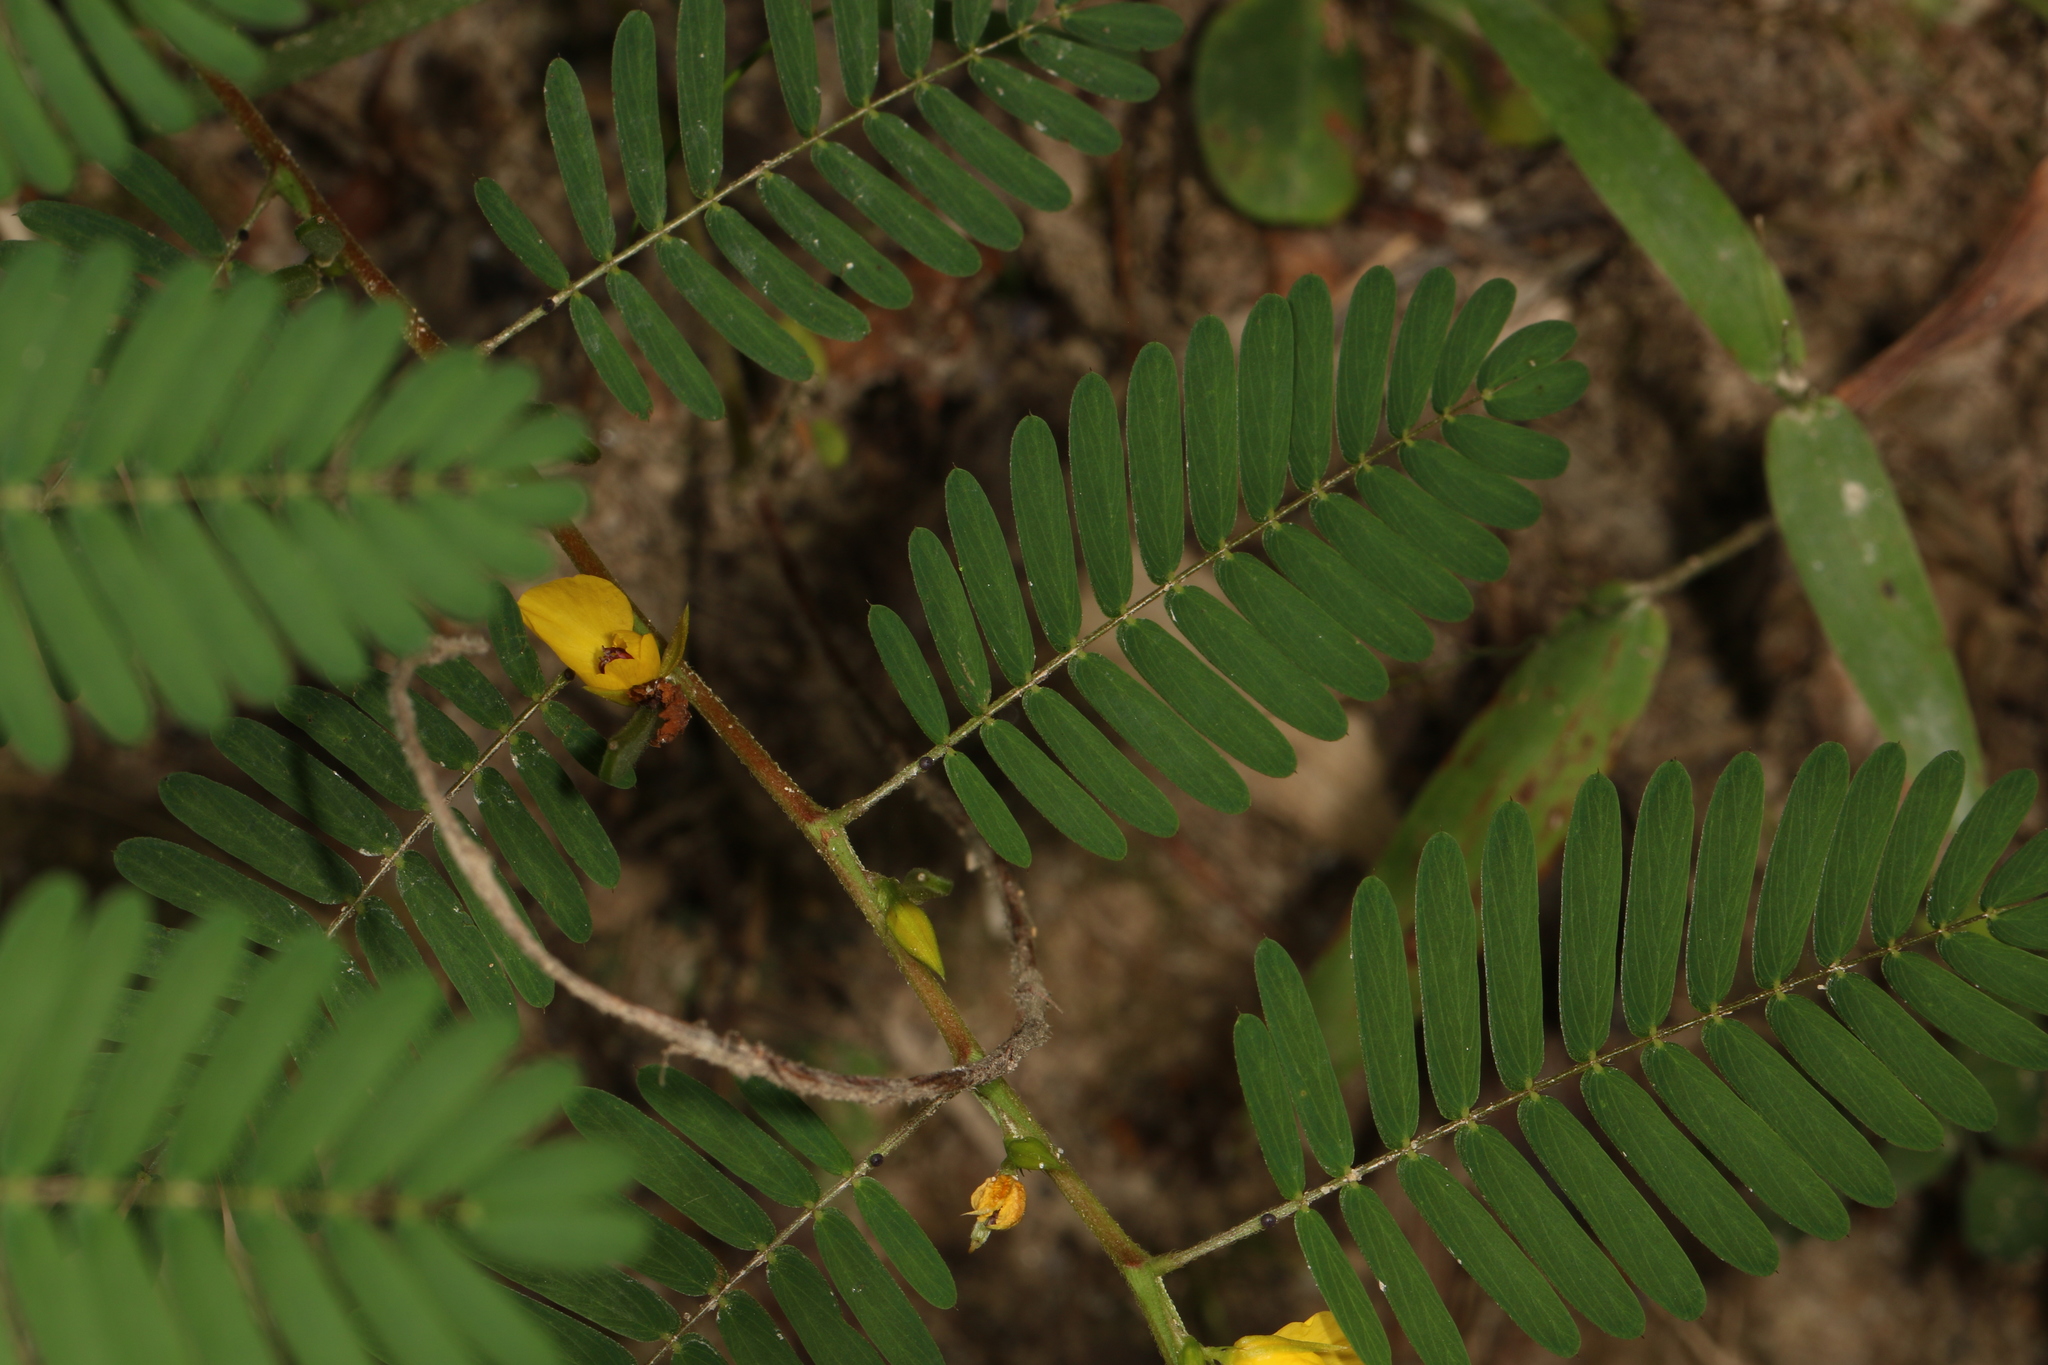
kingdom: Plantae
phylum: Tracheophyta
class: Magnoliopsida
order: Fabales
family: Fabaceae
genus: Chamaecrista
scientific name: Chamaecrista nictitans
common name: Sensitive cassia
